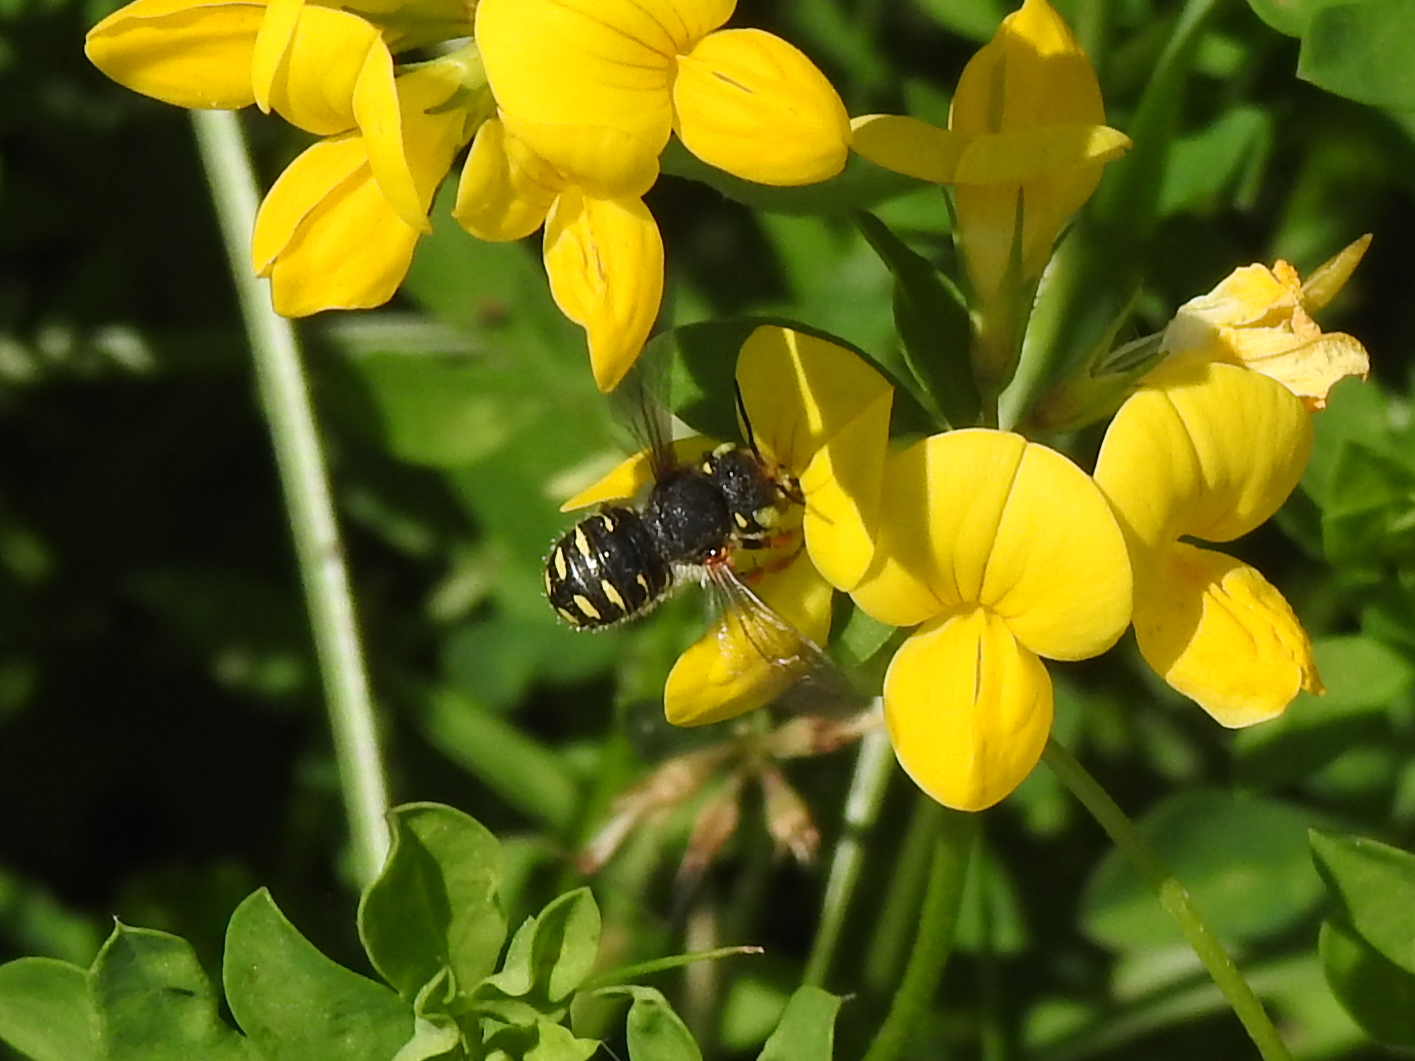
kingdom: Animalia
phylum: Arthropoda
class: Insecta
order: Hymenoptera
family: Megachilidae
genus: Anthidium
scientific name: Anthidium oblongatum
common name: Oblong wool carder bee
